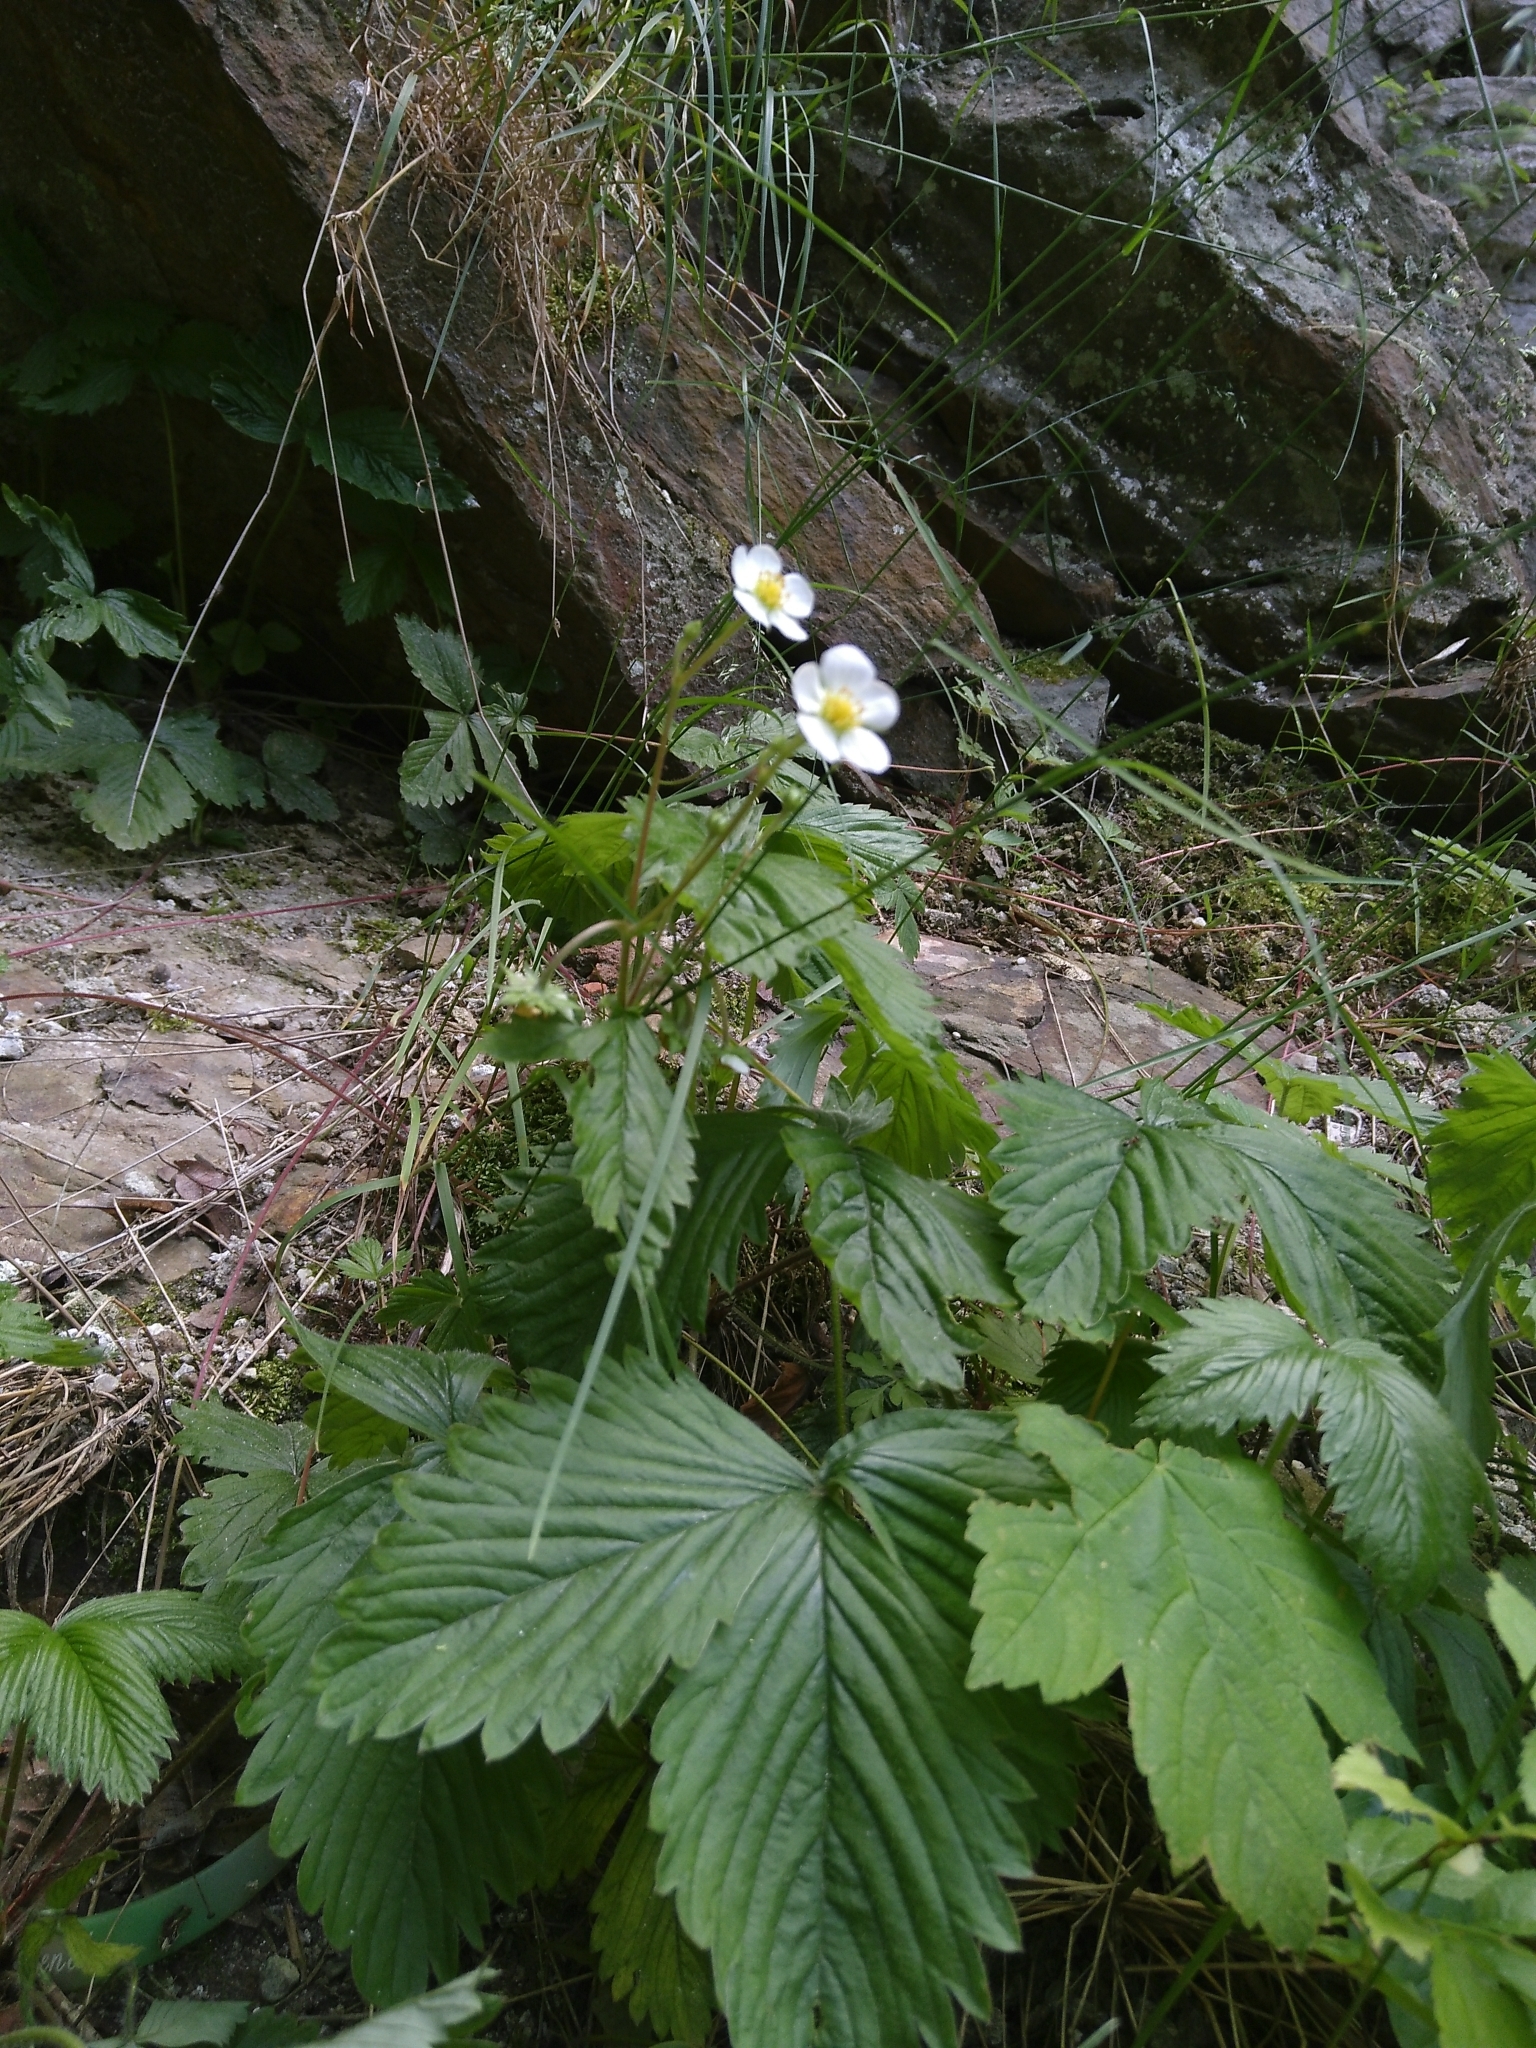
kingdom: Plantae
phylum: Tracheophyta
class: Magnoliopsida
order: Rosales
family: Rosaceae
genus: Fragaria
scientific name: Fragaria vesca
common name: Wild strawberry
